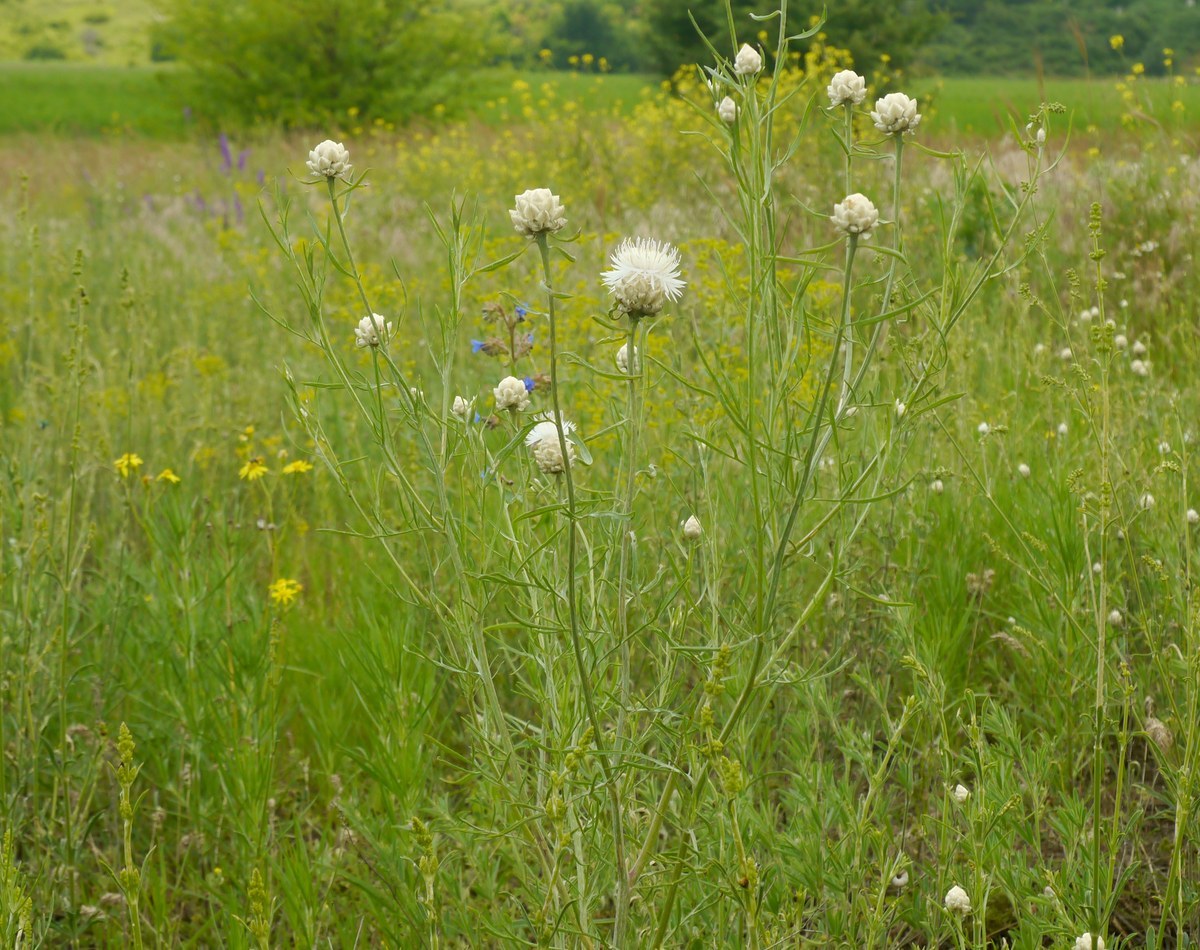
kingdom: Plantae
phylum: Tracheophyta
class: Magnoliopsida
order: Asterales
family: Asteraceae
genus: Centaurea
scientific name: Centaurea splendens
